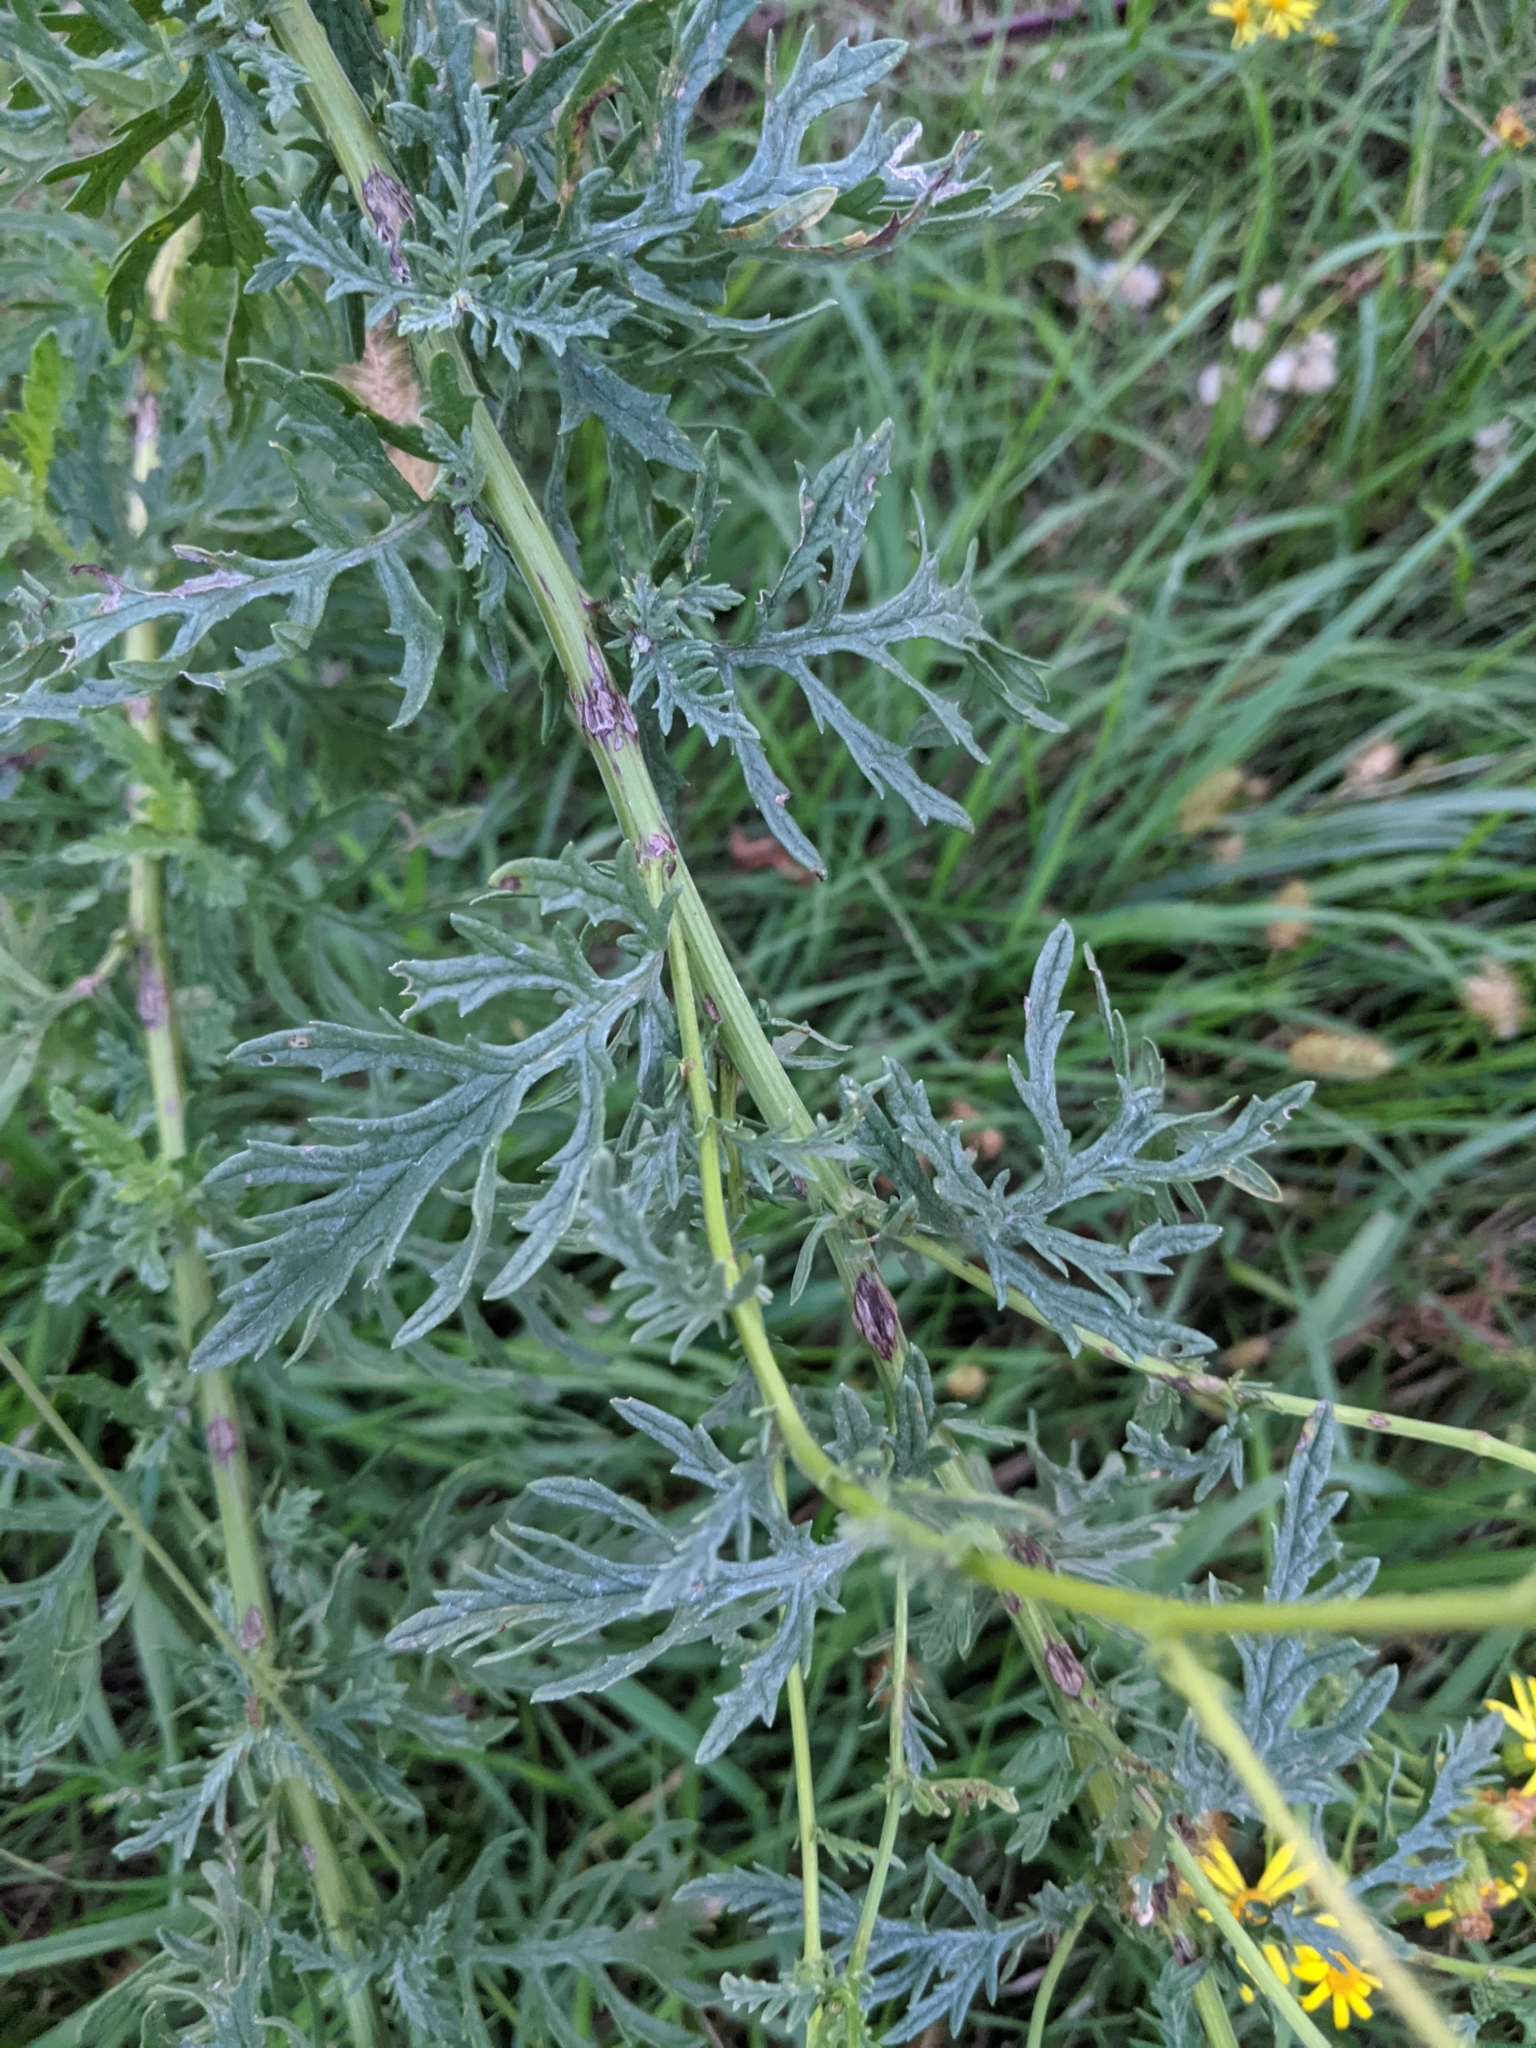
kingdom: Plantae
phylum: Tracheophyta
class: Magnoliopsida
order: Asterales
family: Asteraceae
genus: Jacobaea
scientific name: Jacobaea erucifolia
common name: Hoary ragwort
